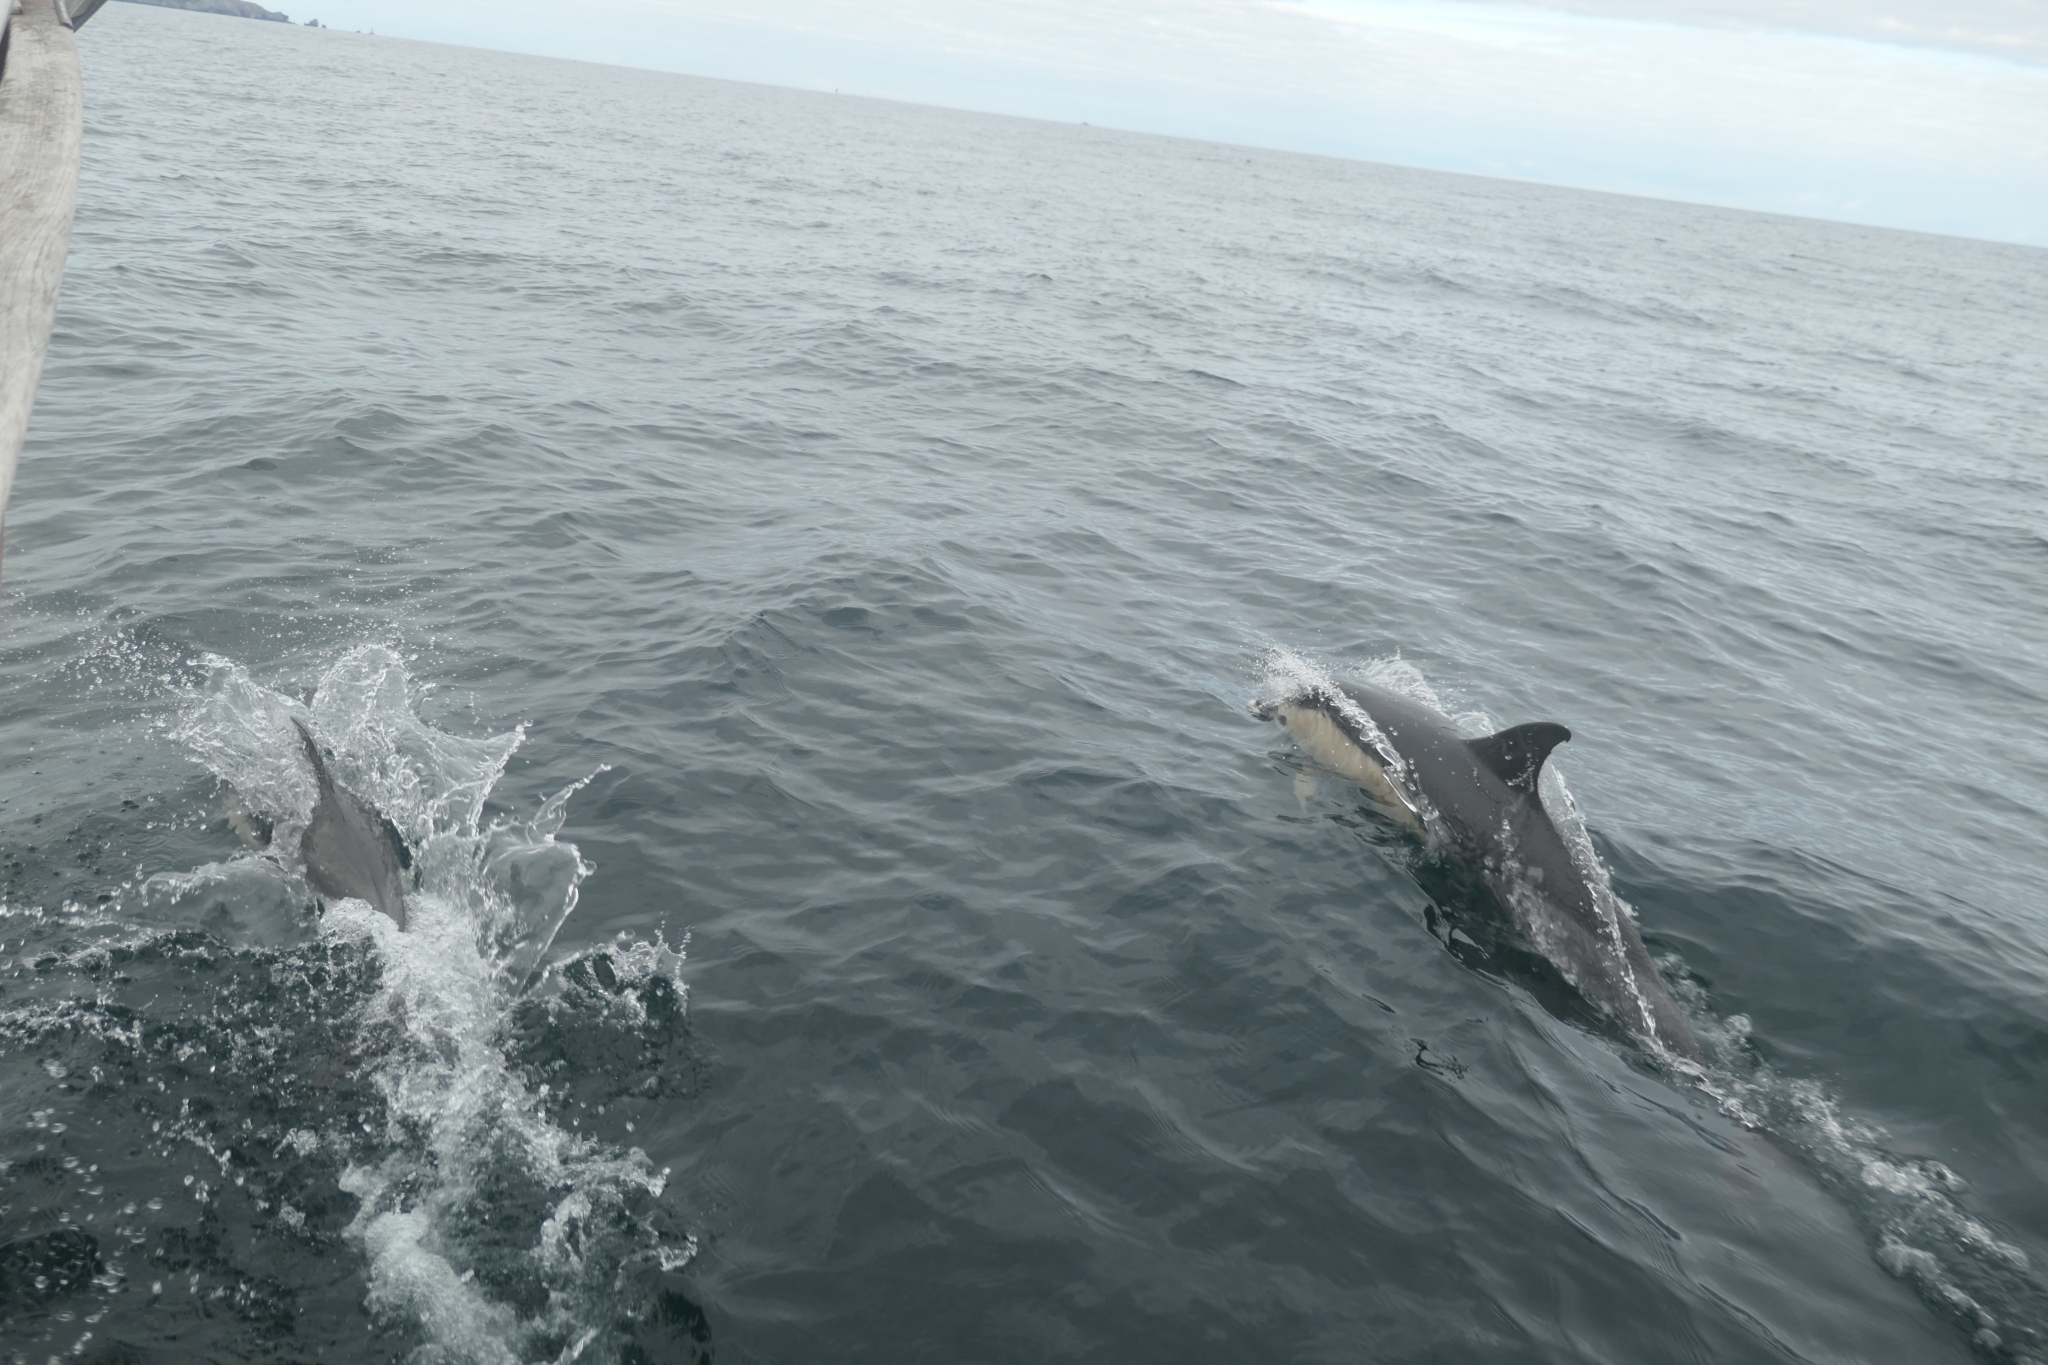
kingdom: Animalia
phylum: Chordata
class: Mammalia
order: Cetacea
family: Delphinidae
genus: Delphinus
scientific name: Delphinus delphis
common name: Common dolphin
